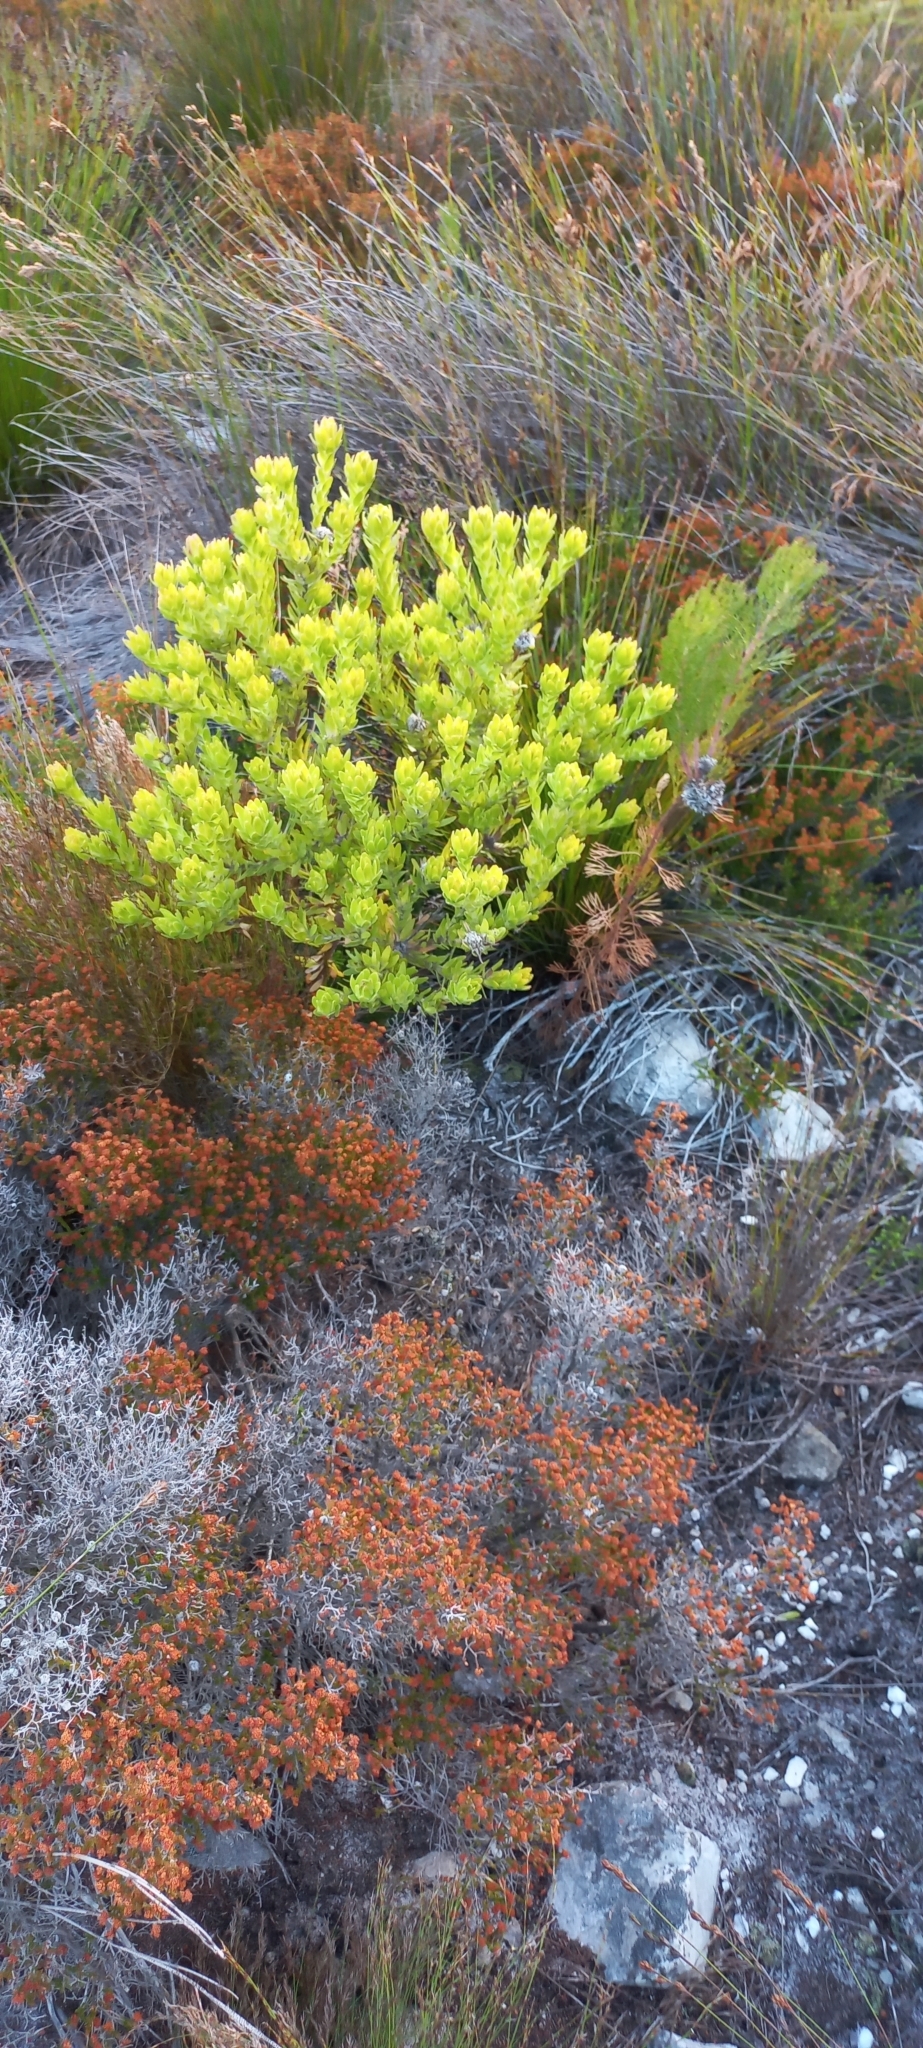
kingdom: Plantae
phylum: Tracheophyta
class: Magnoliopsida
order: Proteales
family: Proteaceae
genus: Diastella
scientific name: Diastella thymelaeoides
